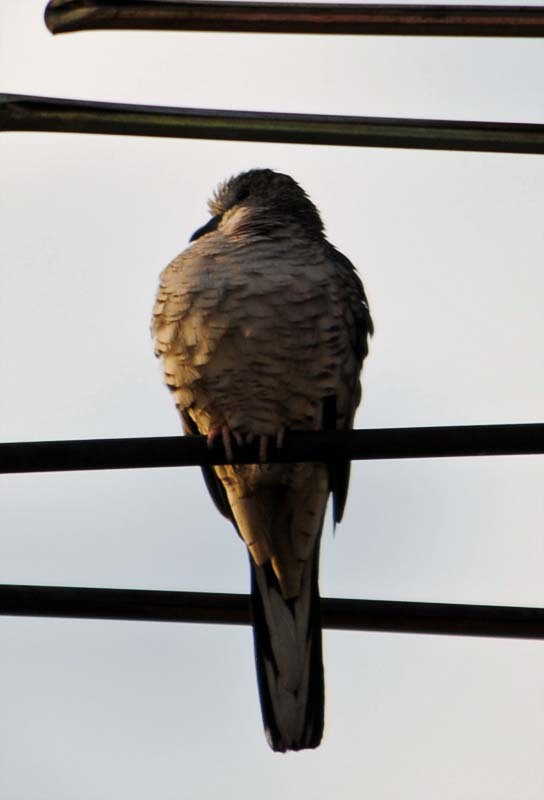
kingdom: Animalia
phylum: Chordata
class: Aves
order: Columbiformes
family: Columbidae
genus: Columbina
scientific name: Columbina inca
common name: Inca dove
